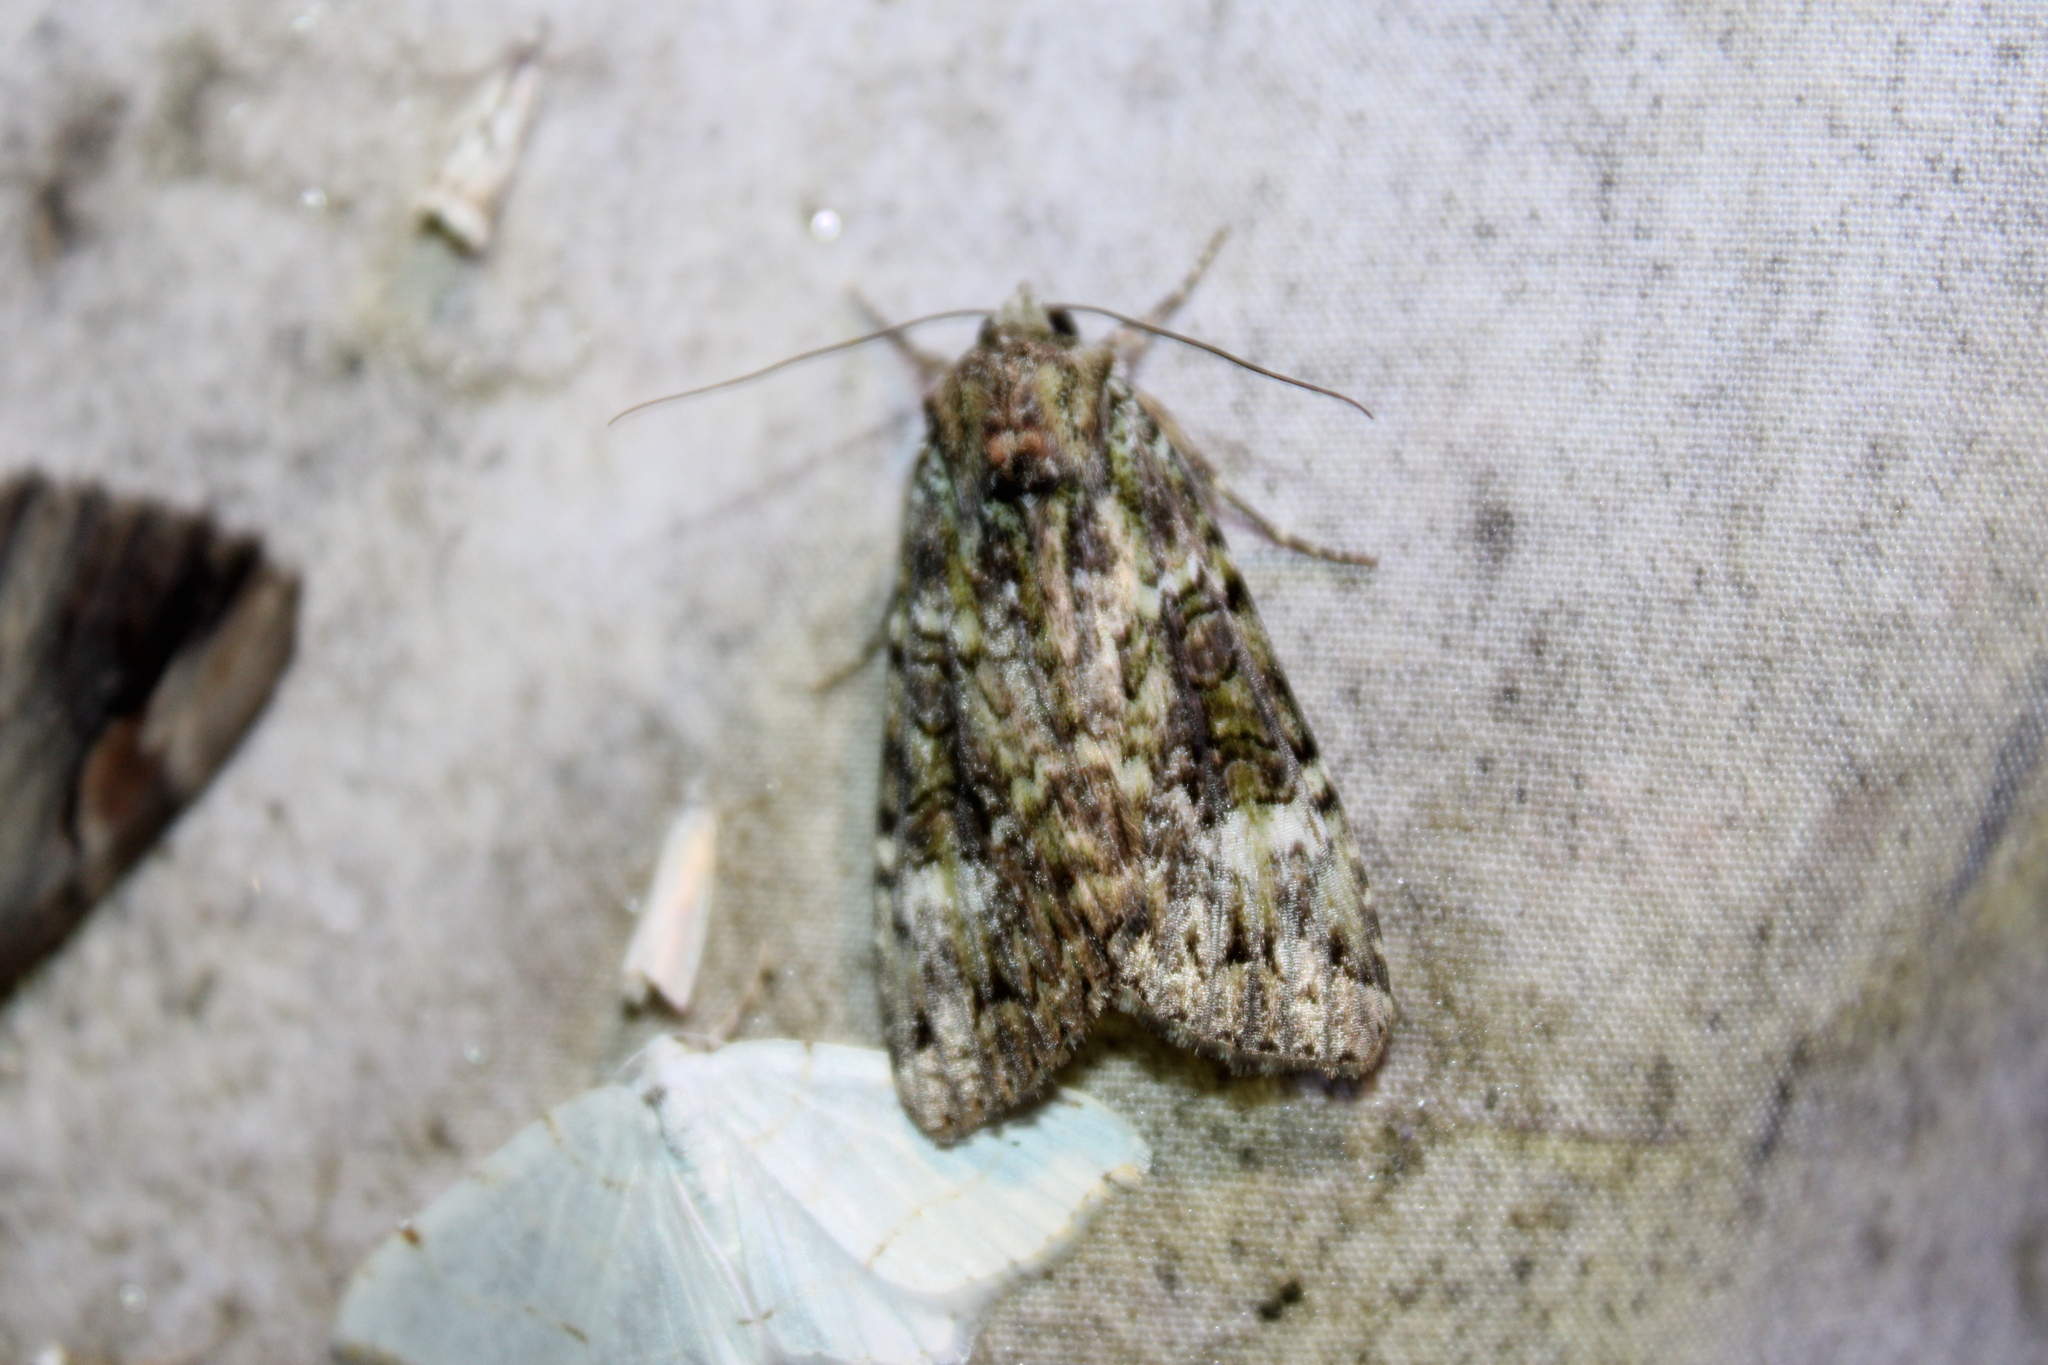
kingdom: Animalia
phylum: Arthropoda
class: Insecta
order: Lepidoptera
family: Noctuidae
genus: Anaplectoides
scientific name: Anaplectoides prasina
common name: Green arches
